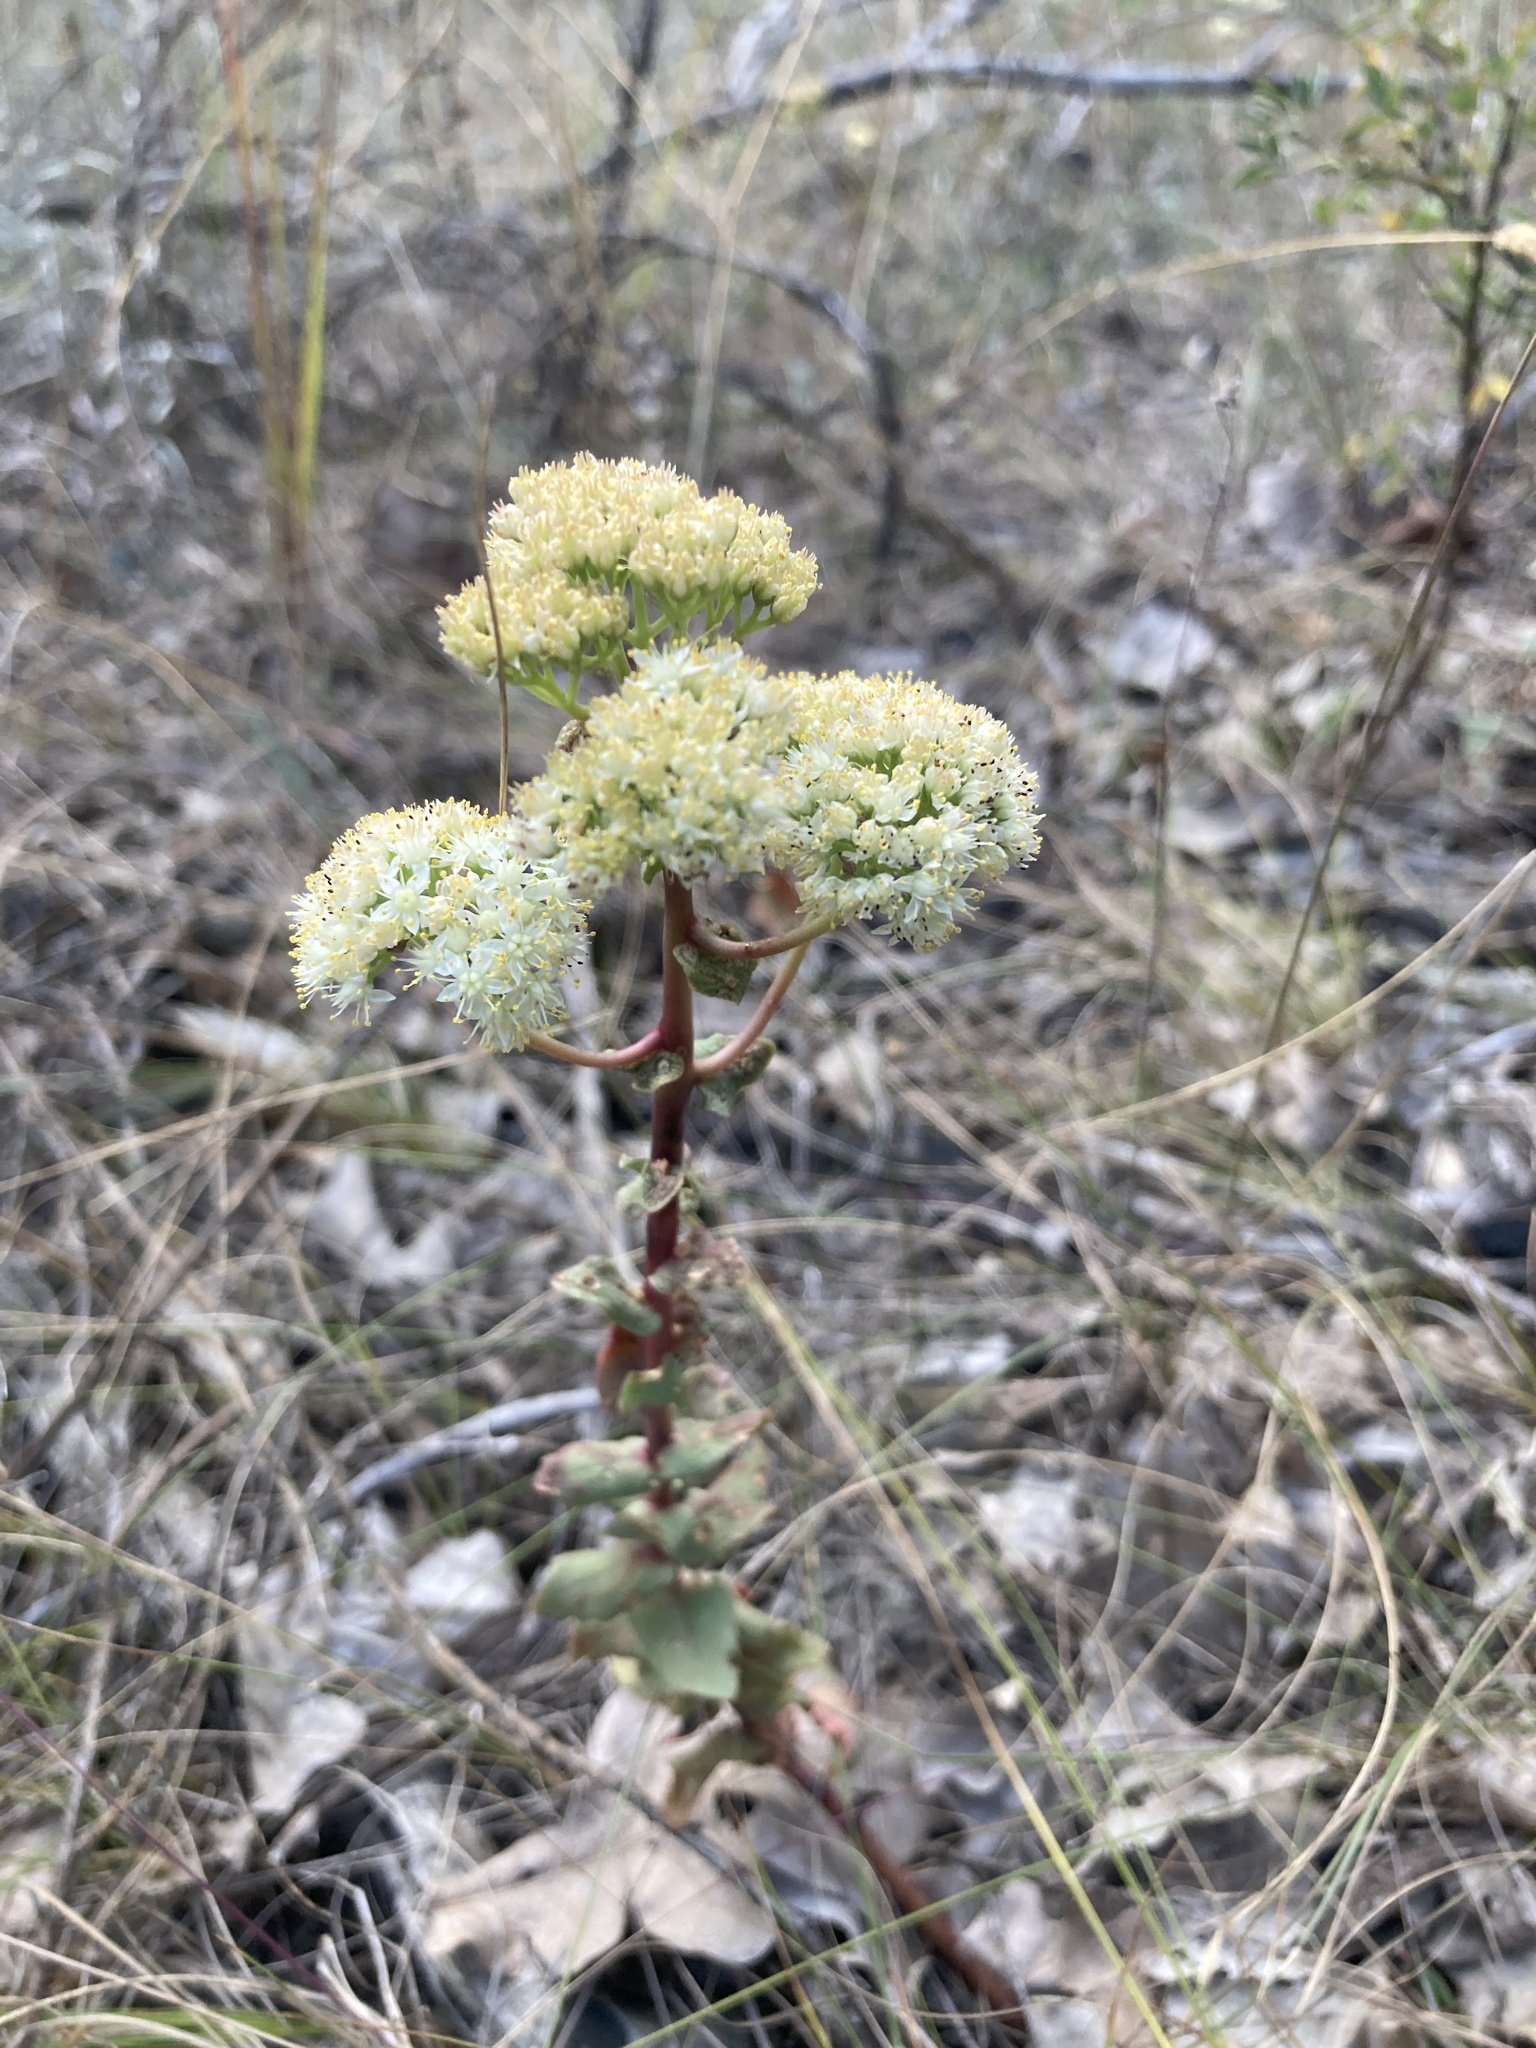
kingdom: Plantae
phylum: Tracheophyta
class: Magnoliopsida
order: Saxifragales
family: Crassulaceae
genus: Hylotelephium
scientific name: Hylotelephium maximum
